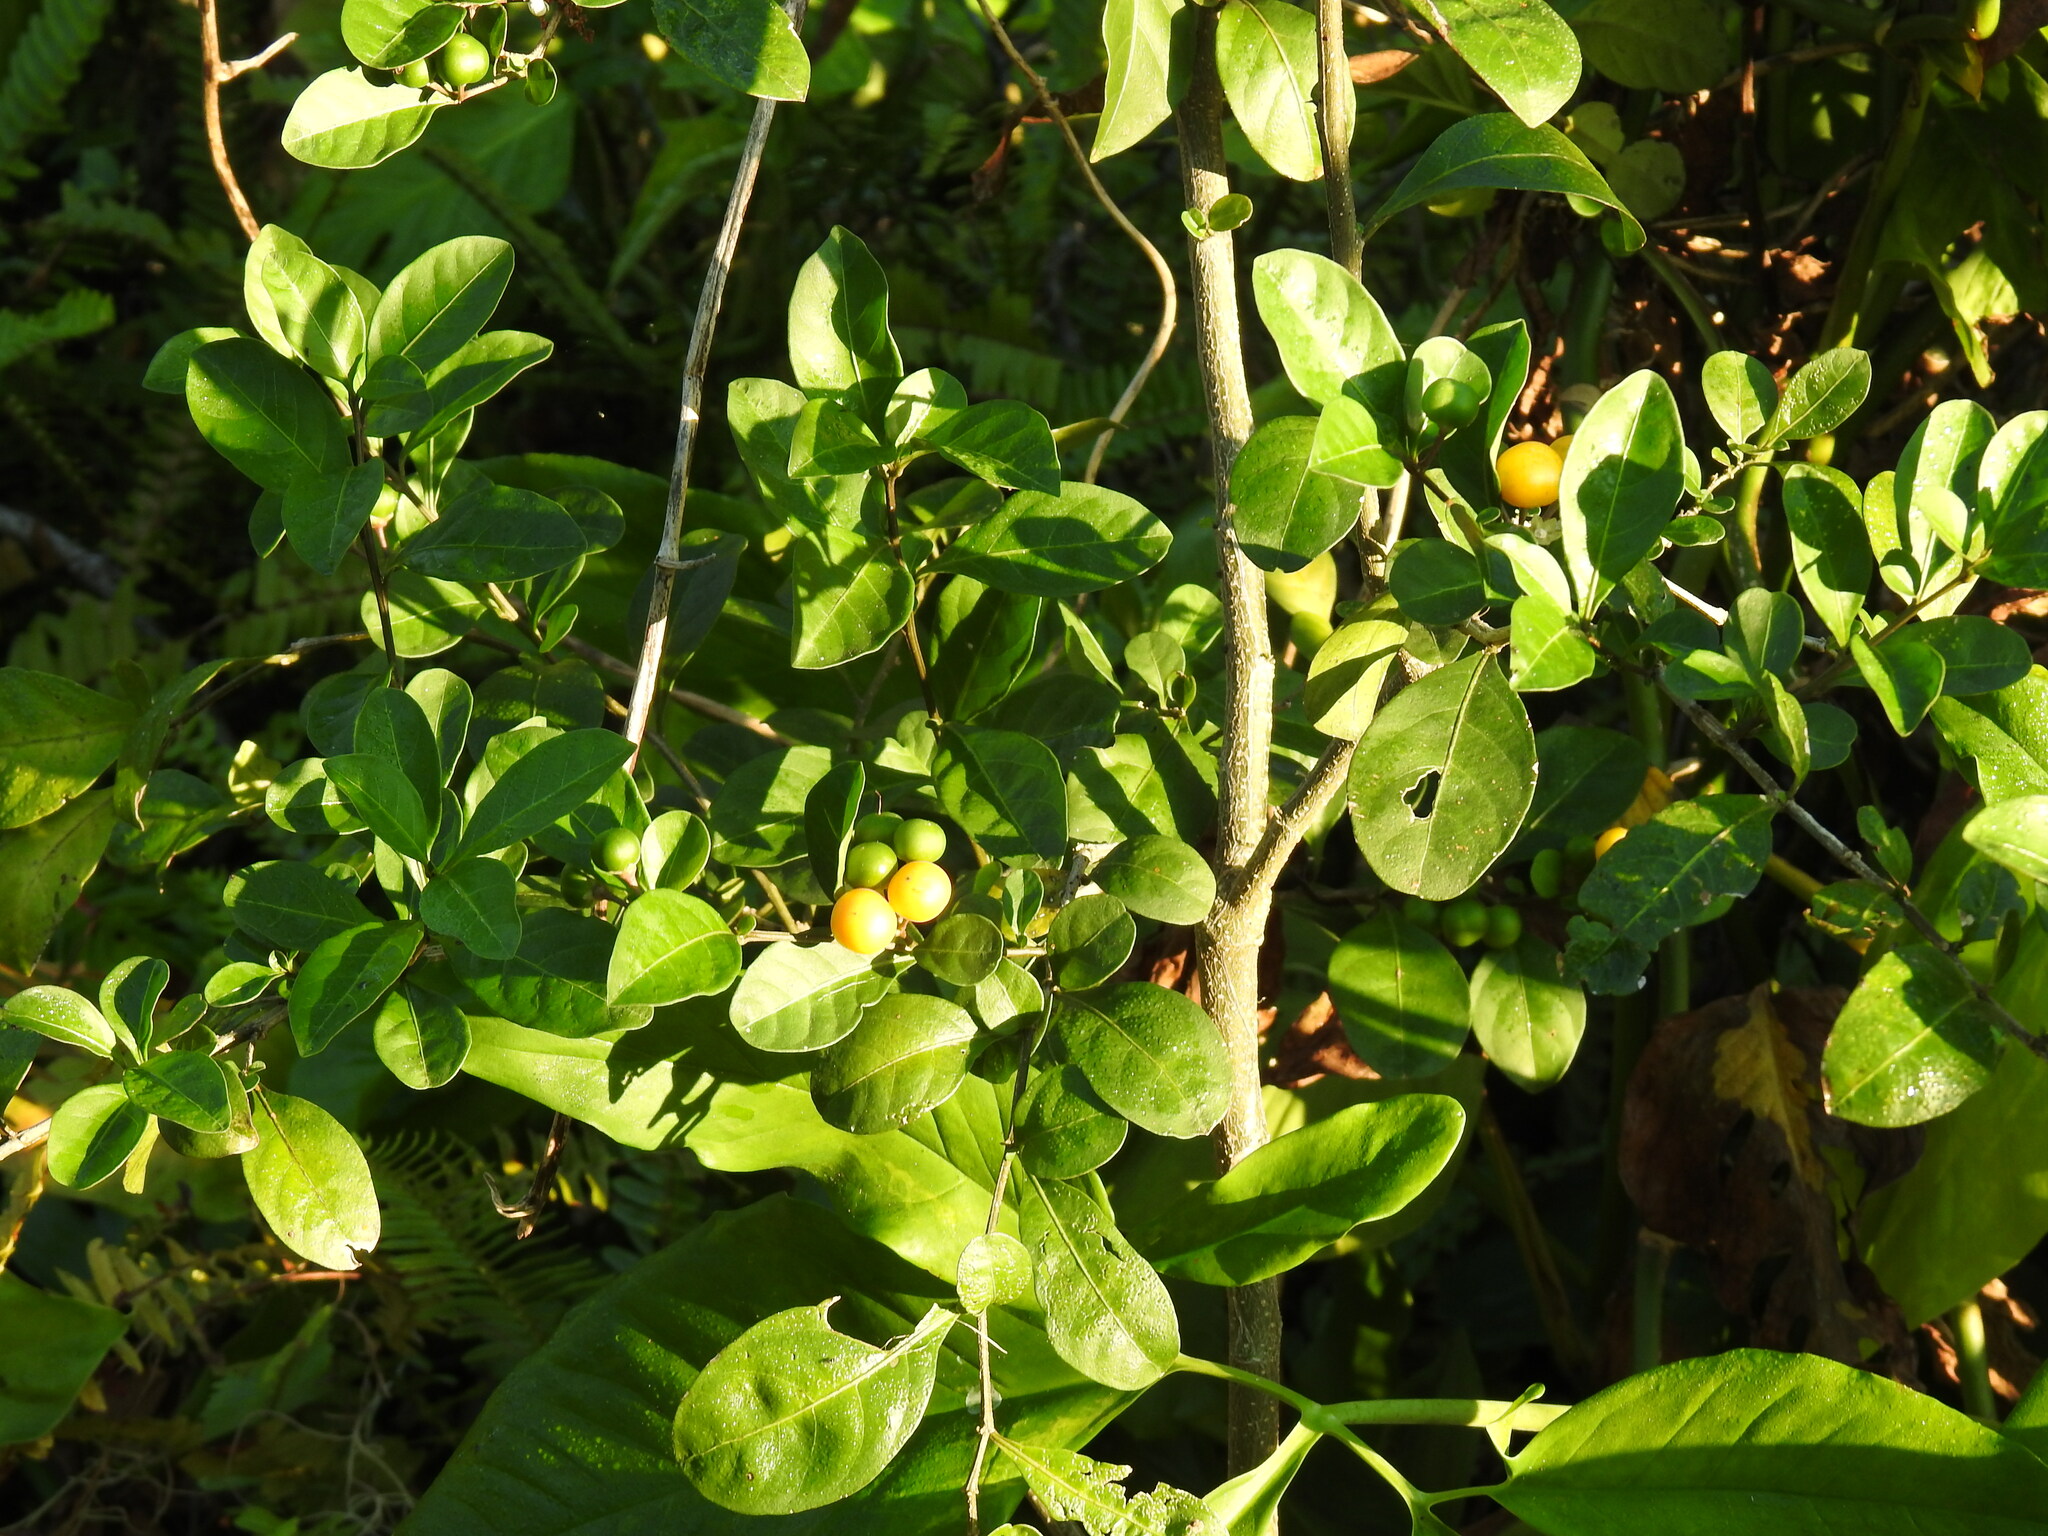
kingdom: Plantae
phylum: Tracheophyta
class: Magnoliopsida
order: Solanales
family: Solanaceae
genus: Solanum
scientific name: Solanum diphyllum
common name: Twoleaf nightshade
